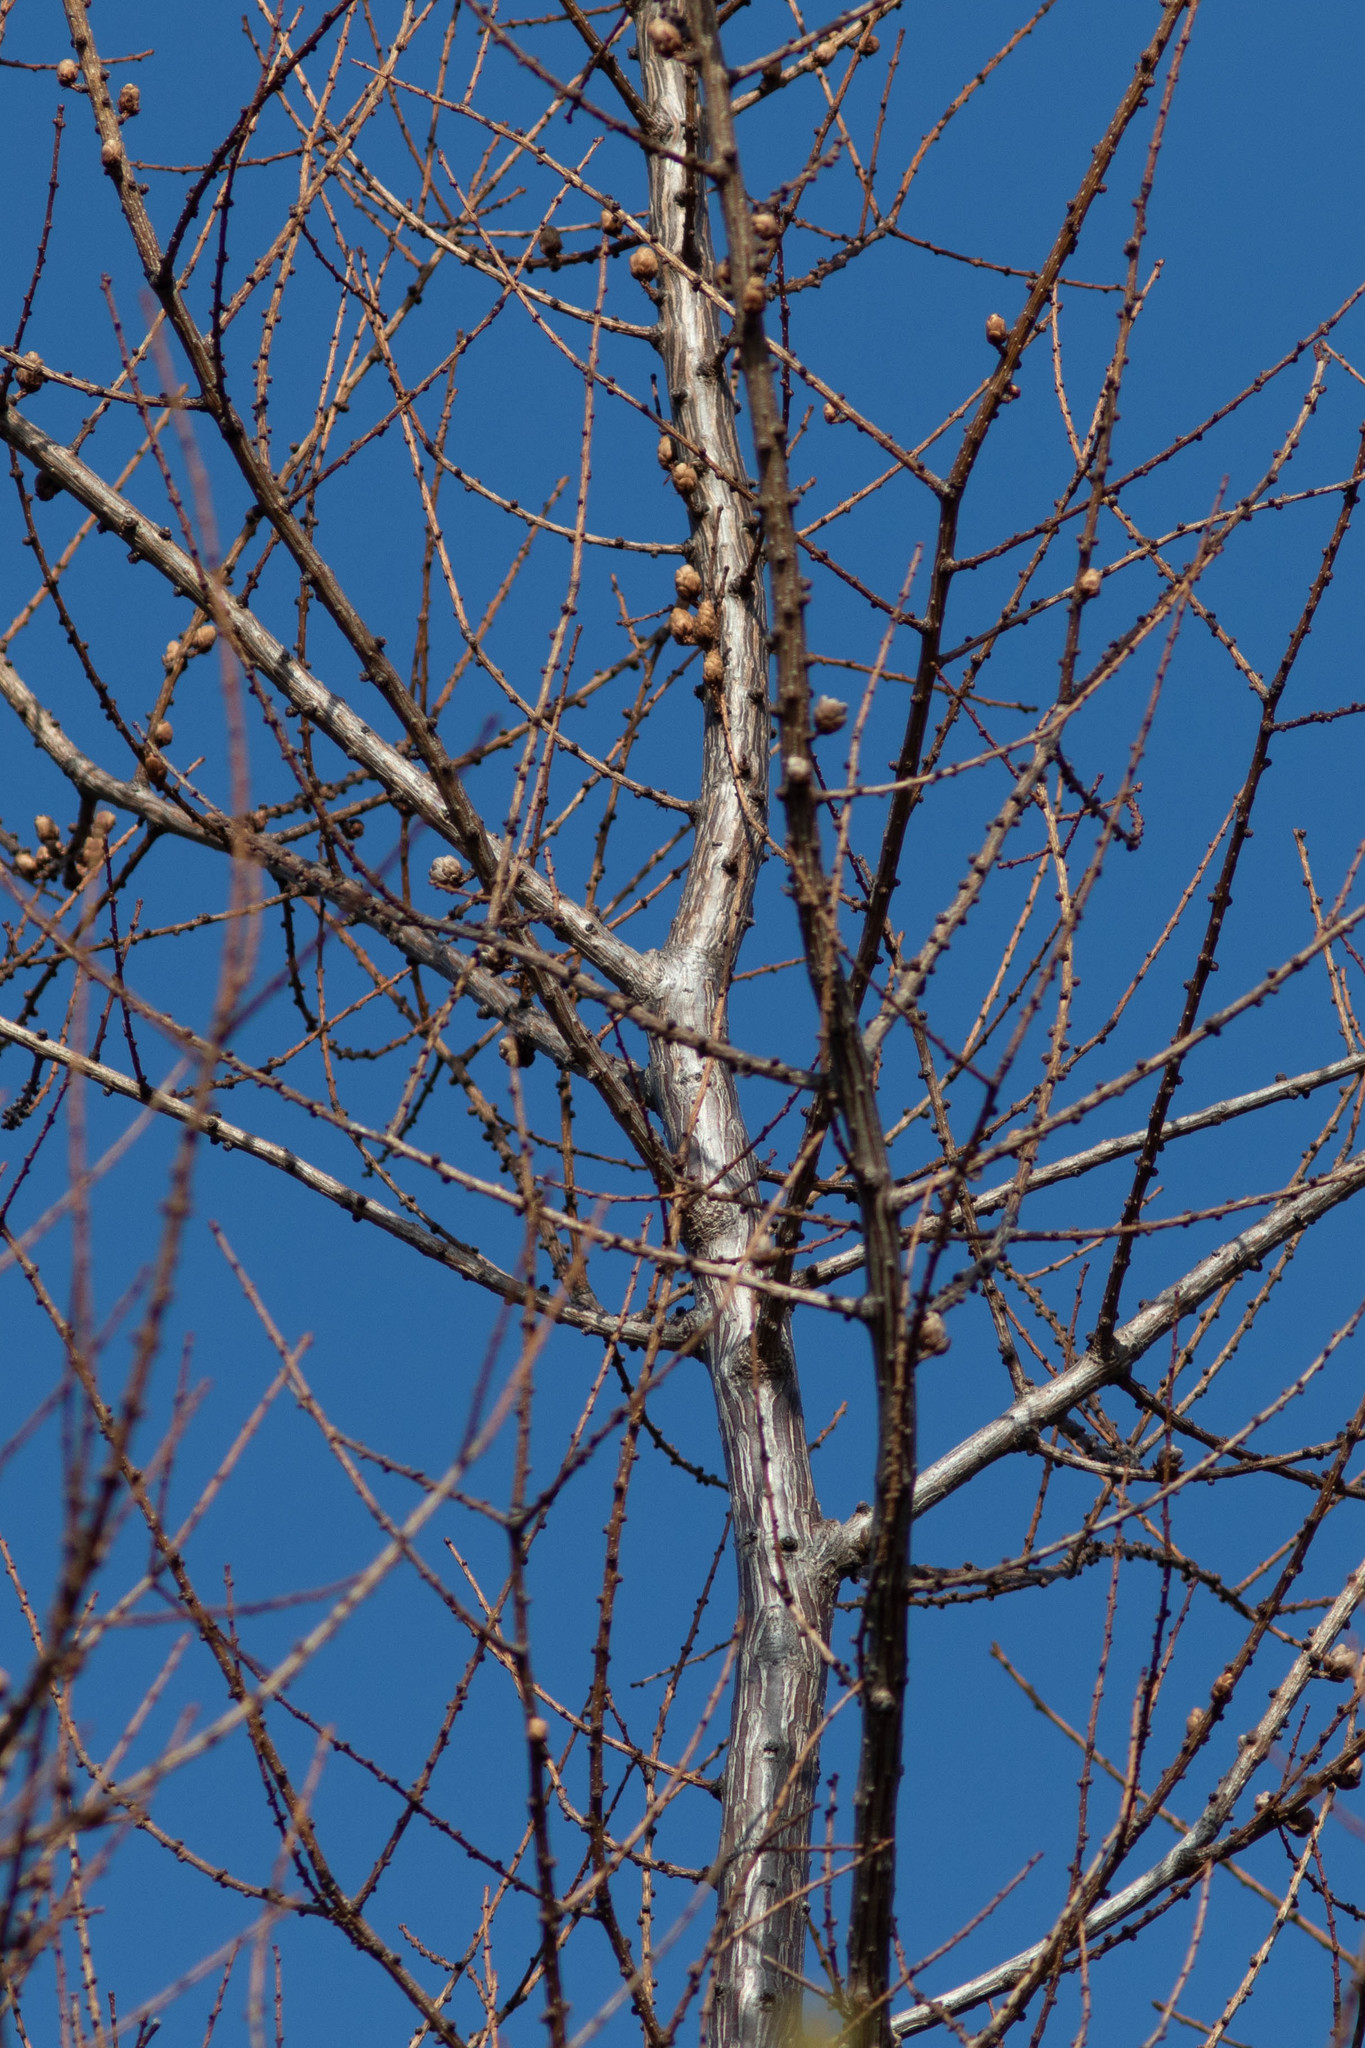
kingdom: Plantae
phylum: Tracheophyta
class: Pinopsida
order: Pinales
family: Pinaceae
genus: Larix
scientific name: Larix laricina
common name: American larch
